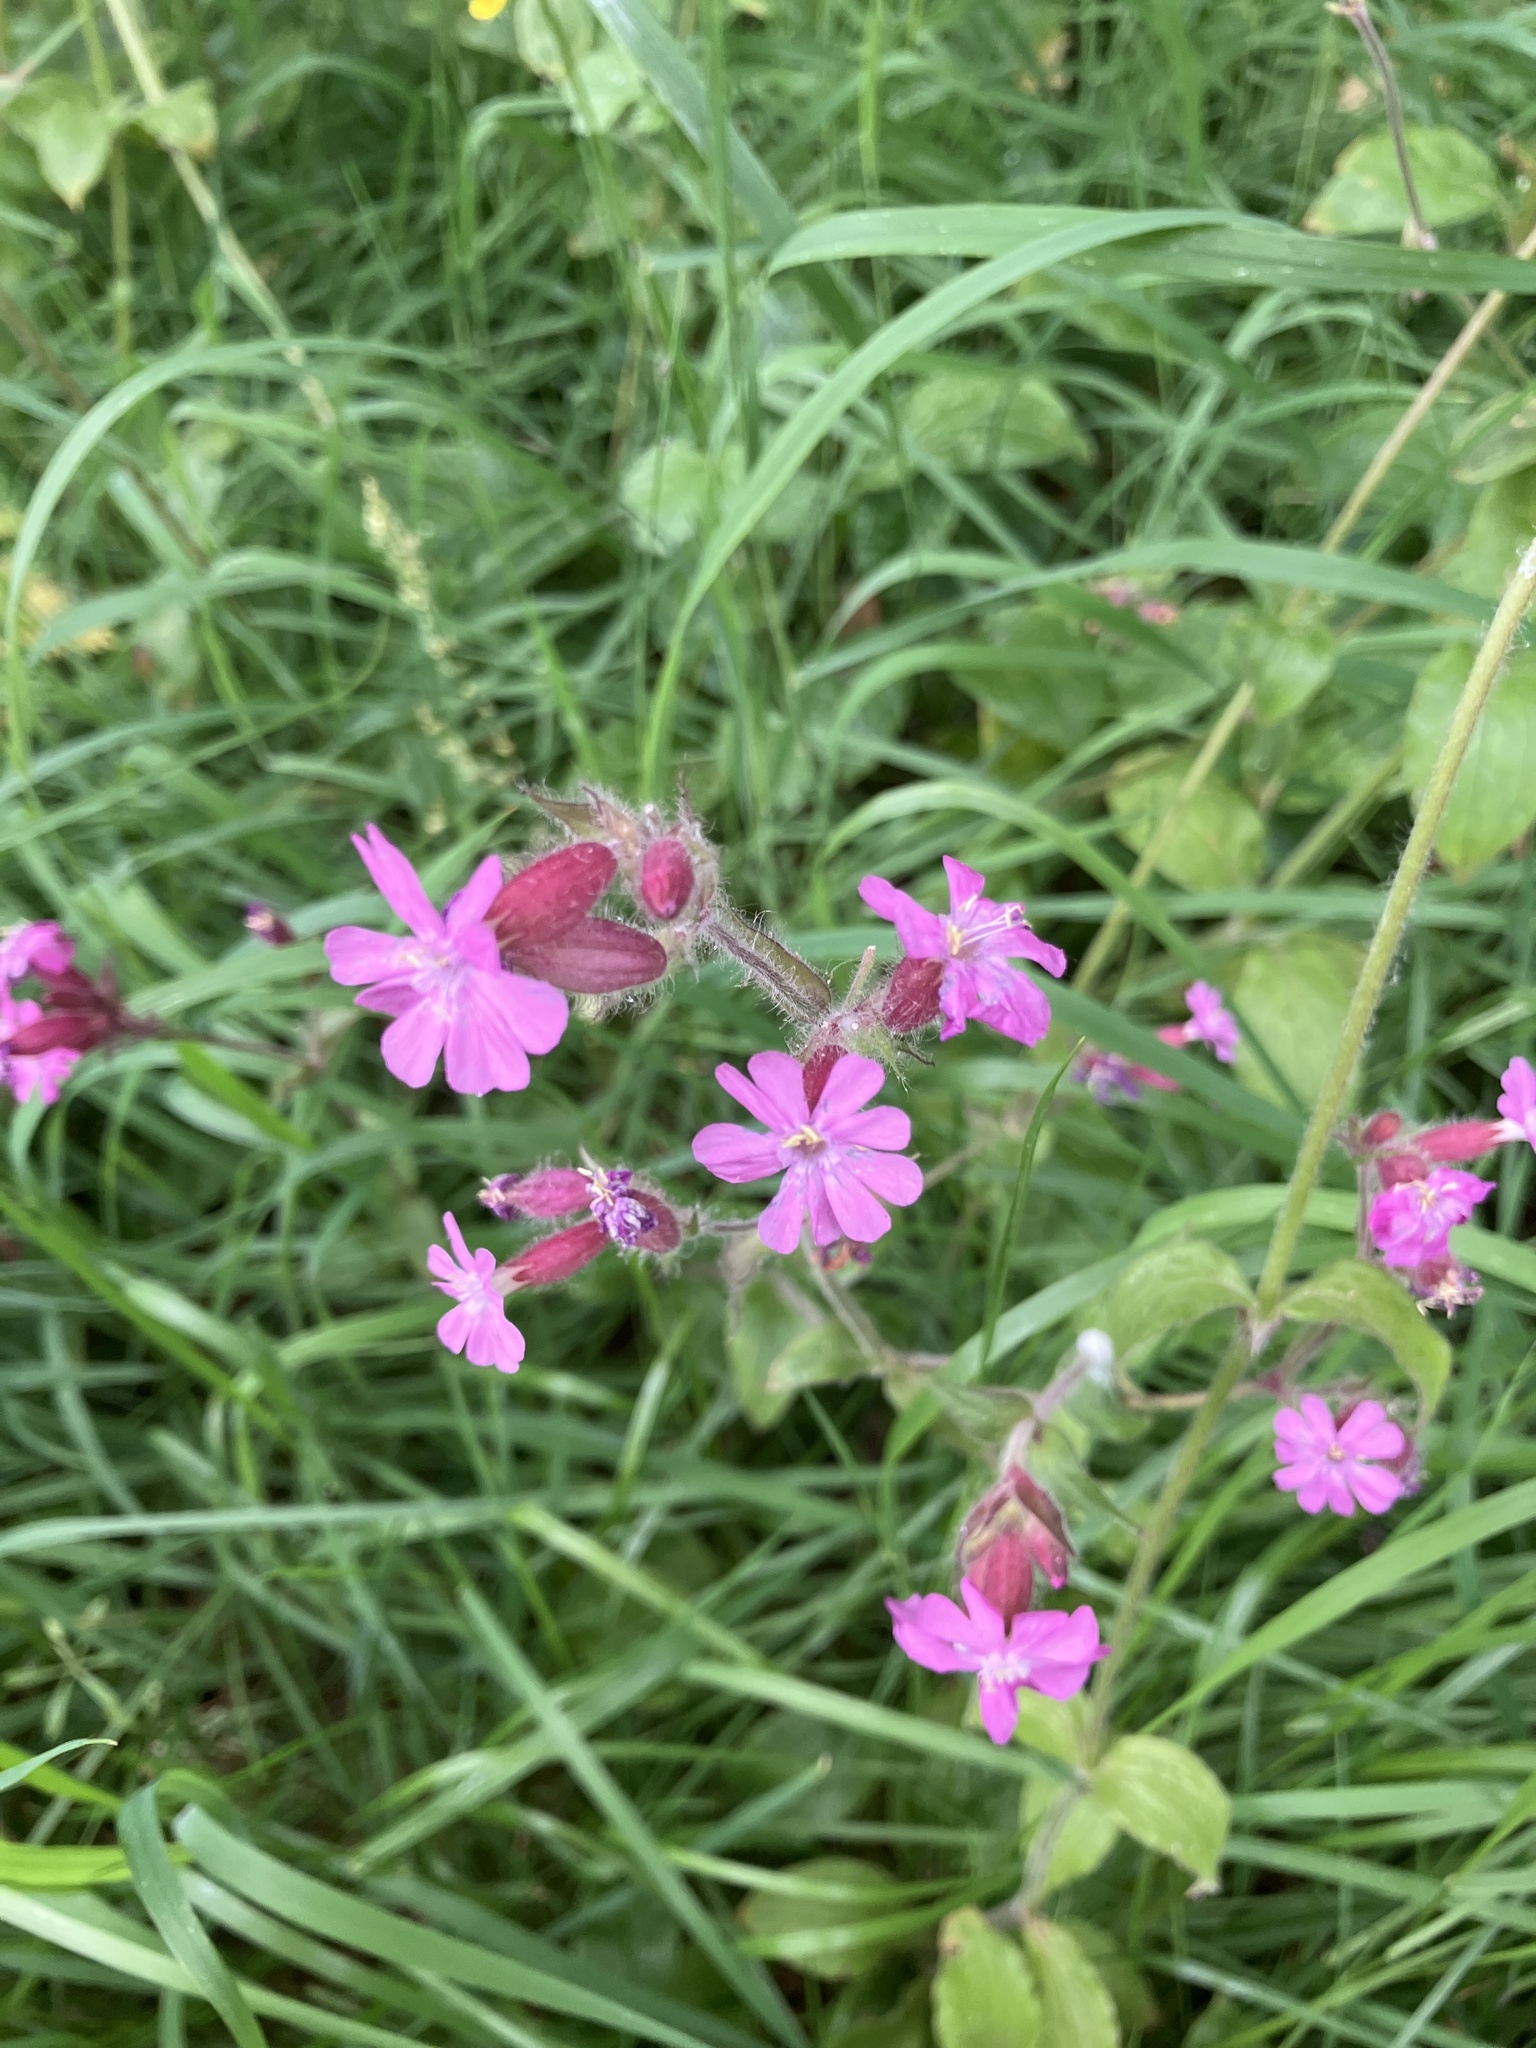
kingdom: Plantae
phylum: Tracheophyta
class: Magnoliopsida
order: Caryophyllales
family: Caryophyllaceae
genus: Silene
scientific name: Silene dioica
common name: Red campion
